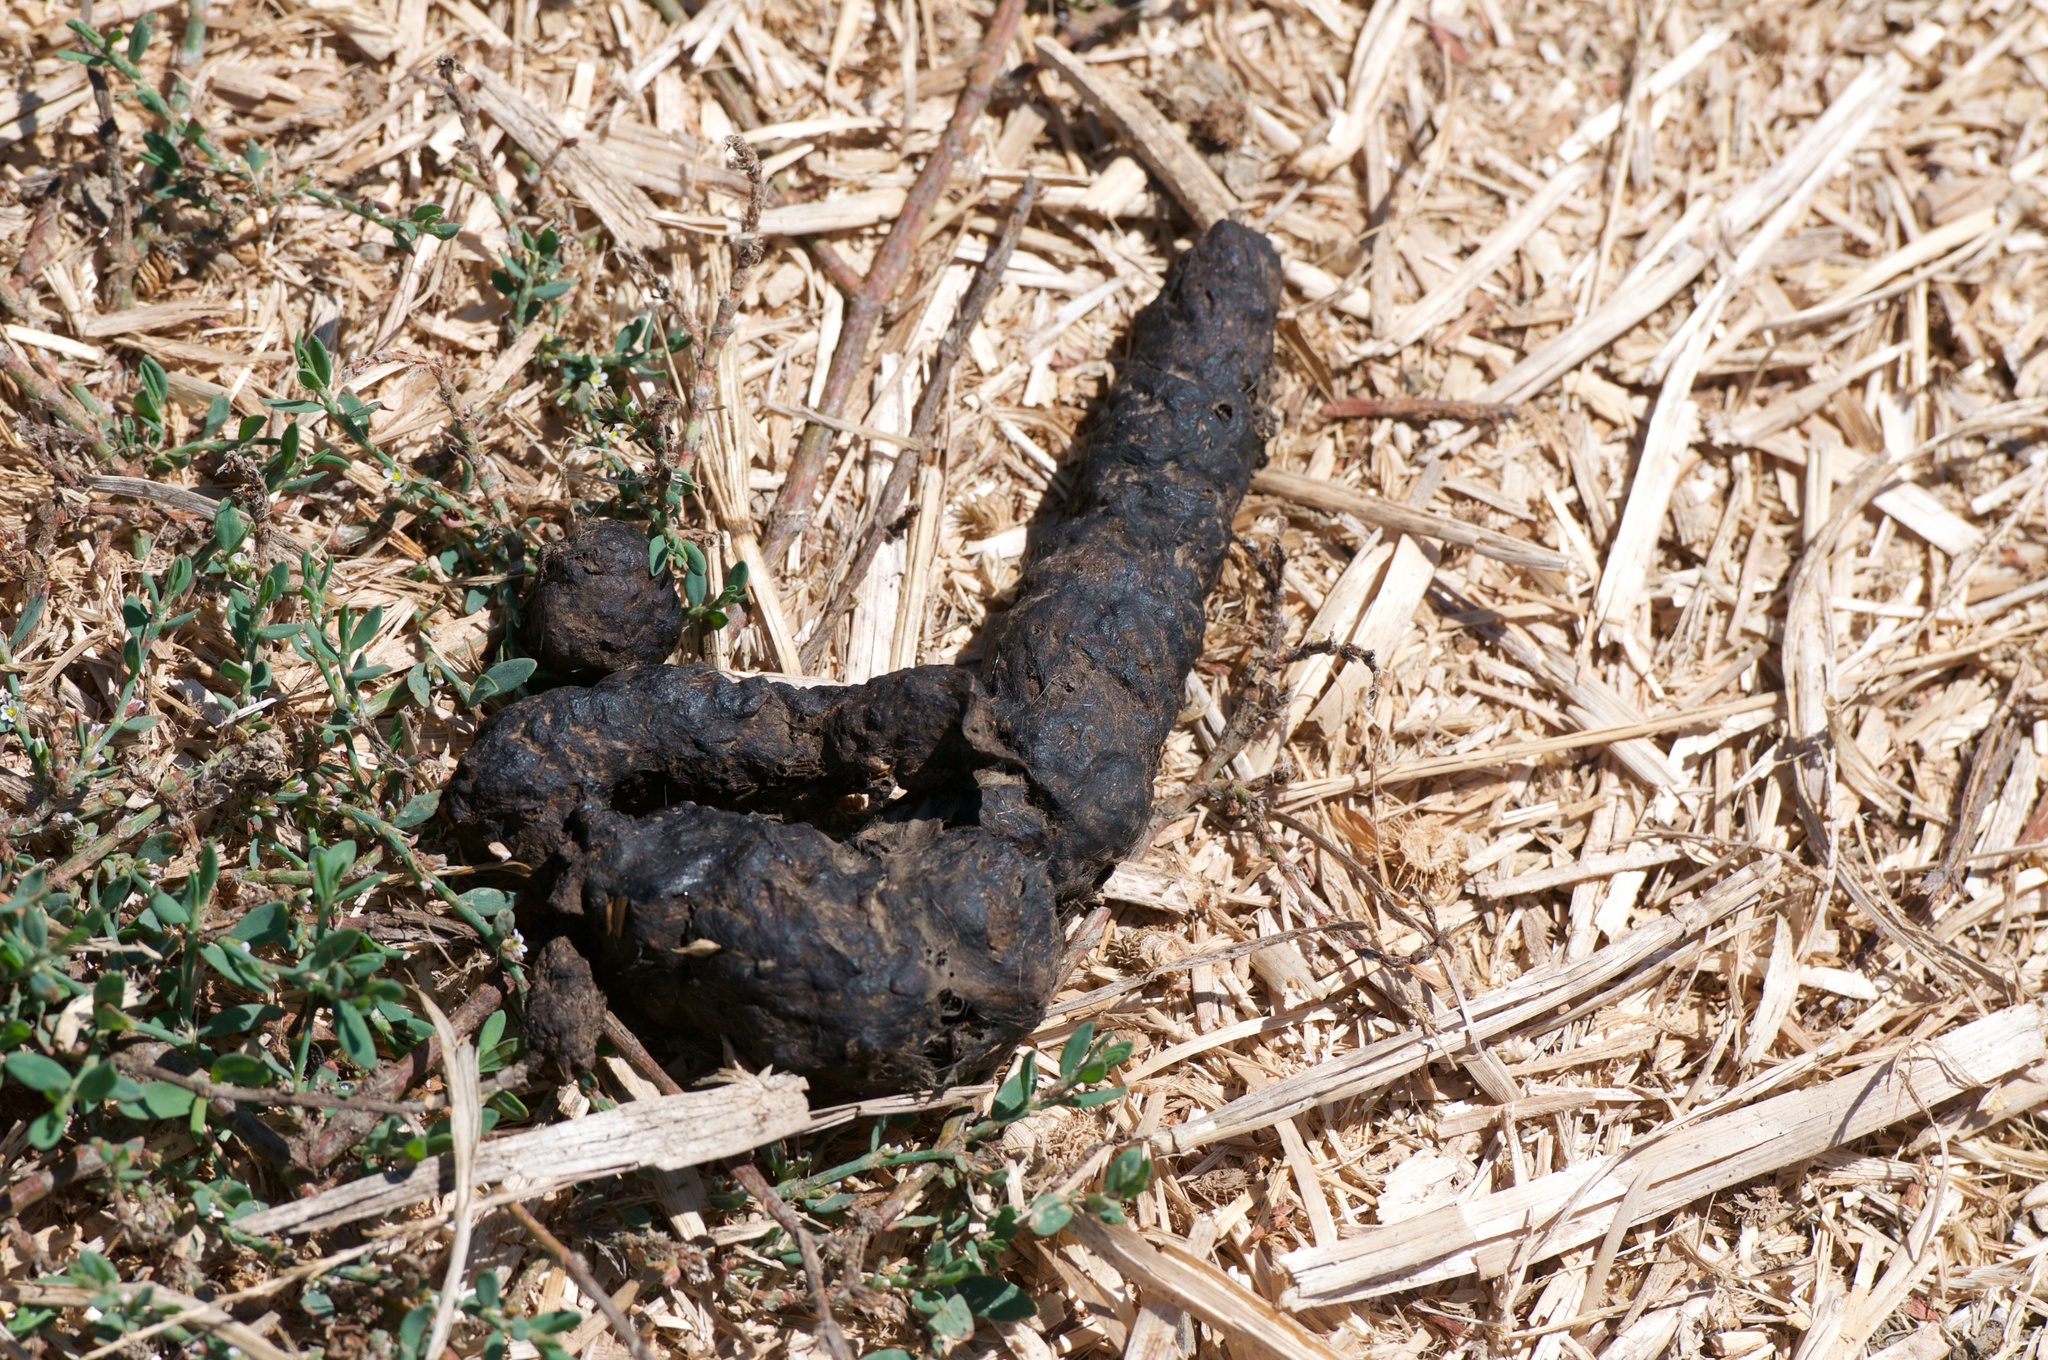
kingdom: Animalia
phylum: Chordata
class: Mammalia
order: Carnivora
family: Canidae
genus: Canis
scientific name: Canis latrans
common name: Coyote
